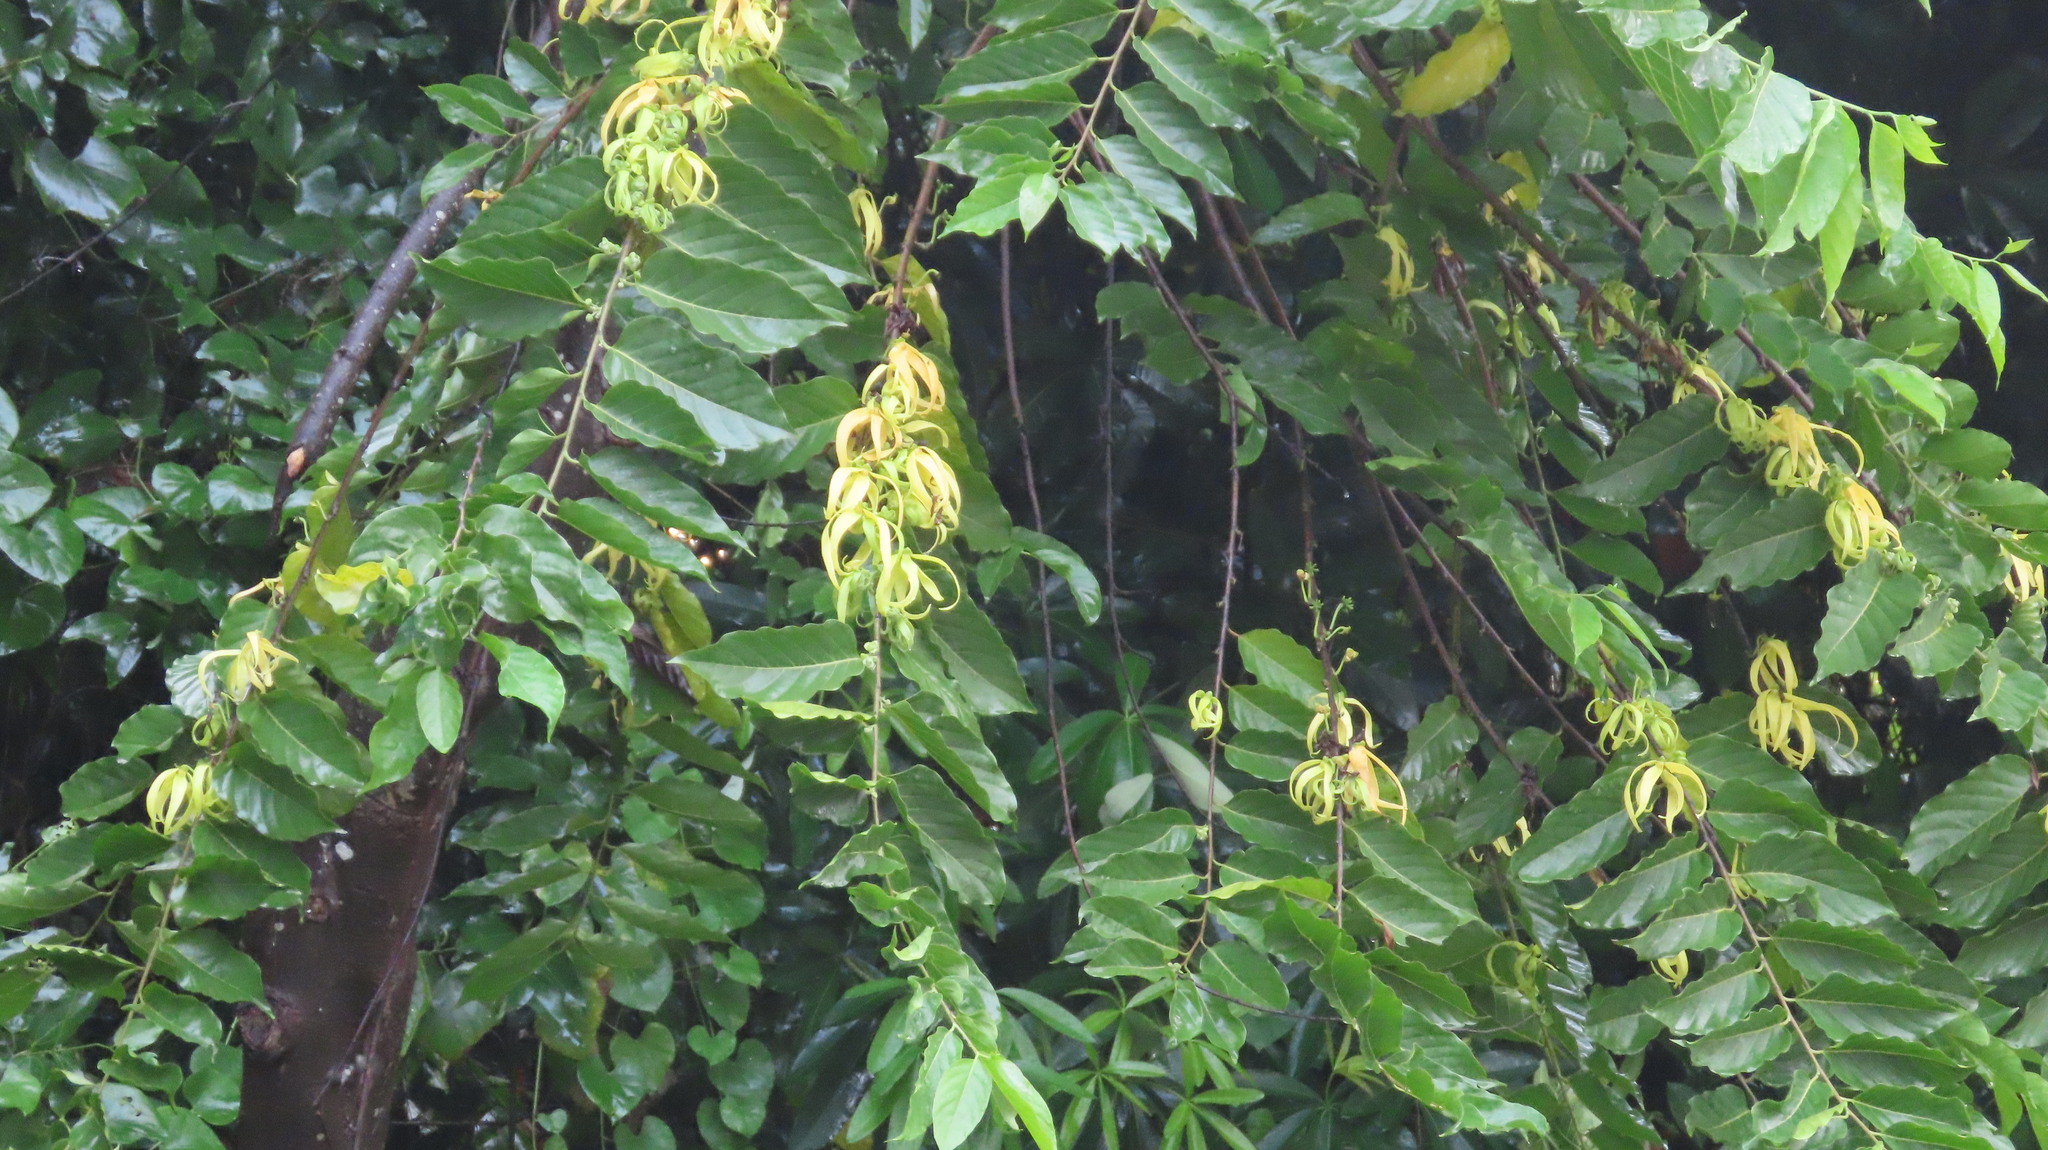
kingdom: Plantae
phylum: Tracheophyta
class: Magnoliopsida
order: Magnoliales
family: Annonaceae
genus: Cananga
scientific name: Cananga odorata
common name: Cananga tree
